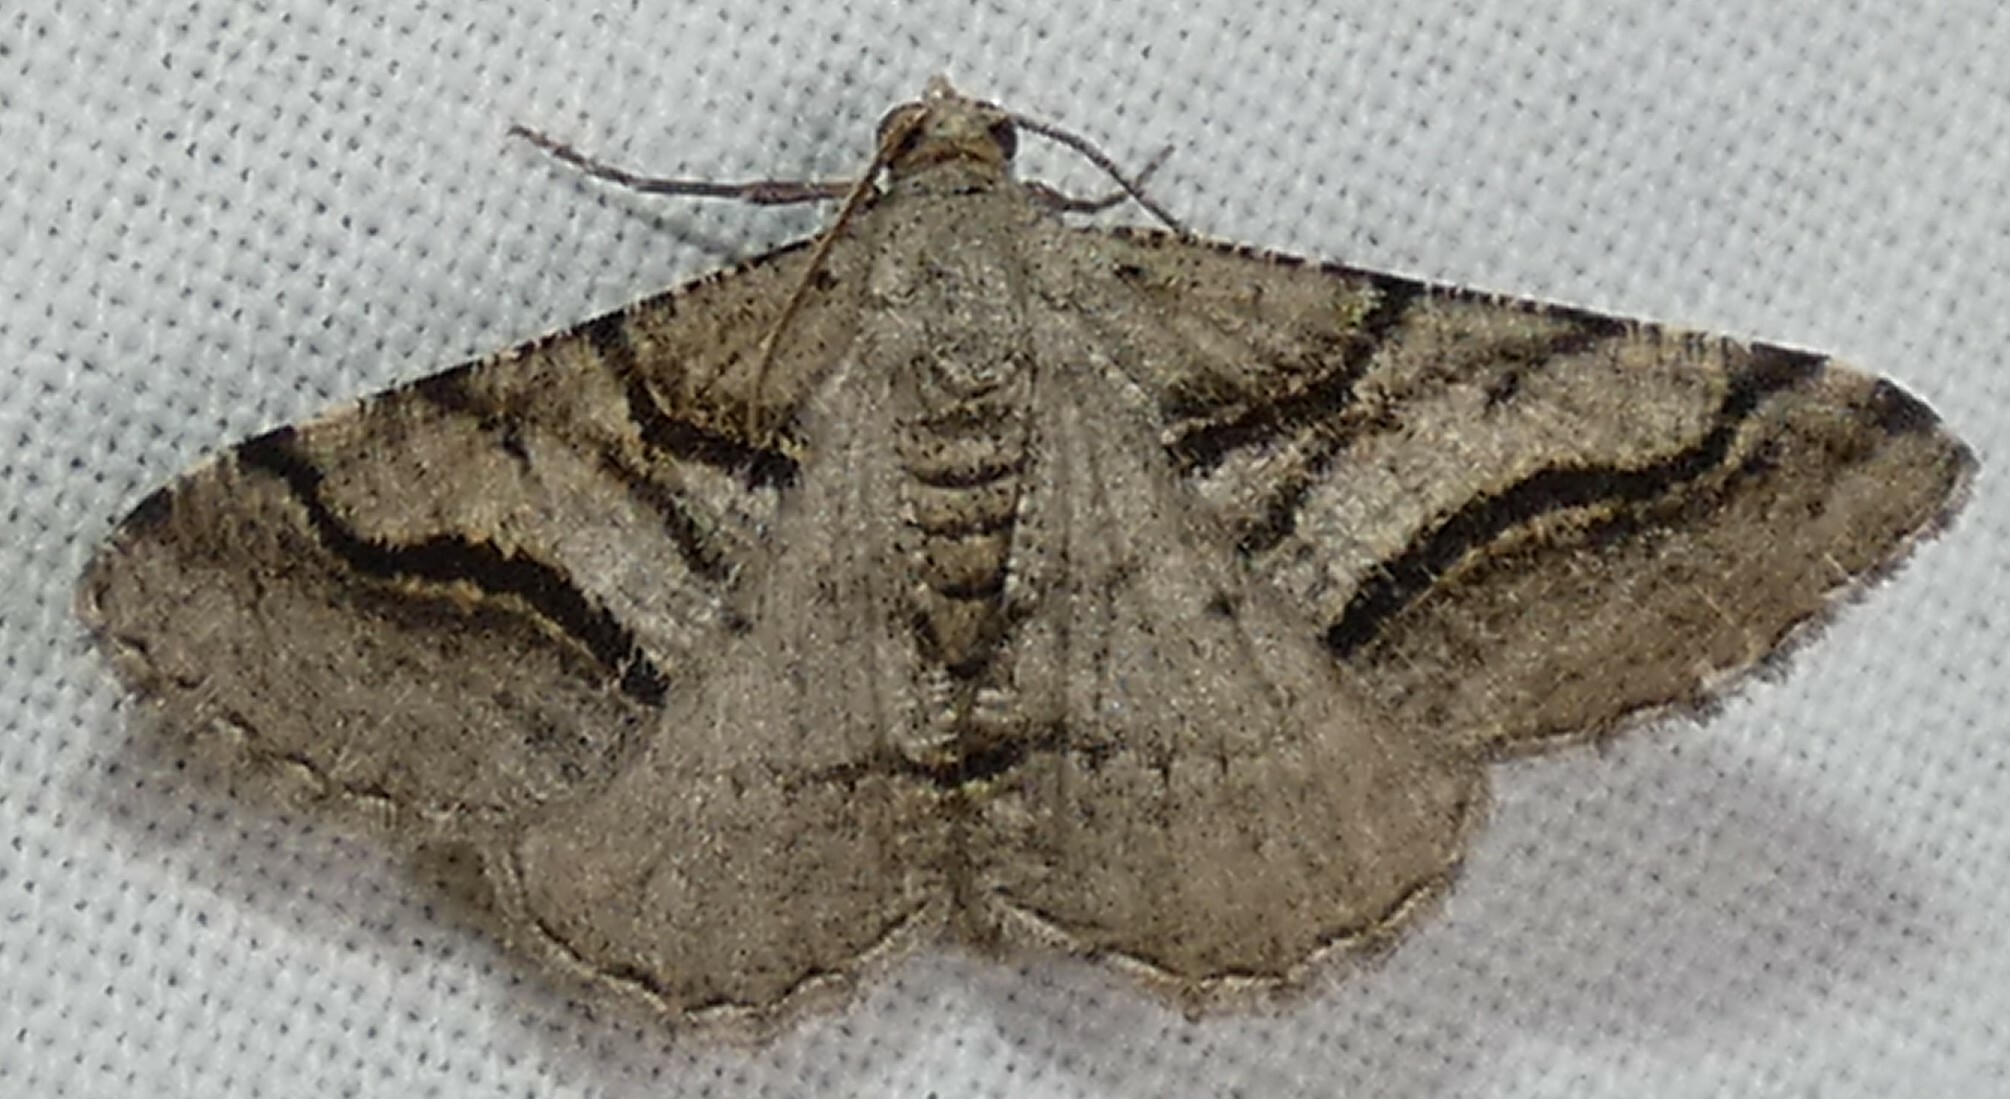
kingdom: Animalia
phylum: Arthropoda
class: Insecta
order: Lepidoptera
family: Geometridae
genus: Digrammia
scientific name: Digrammia continuata
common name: Curve-lined angle
